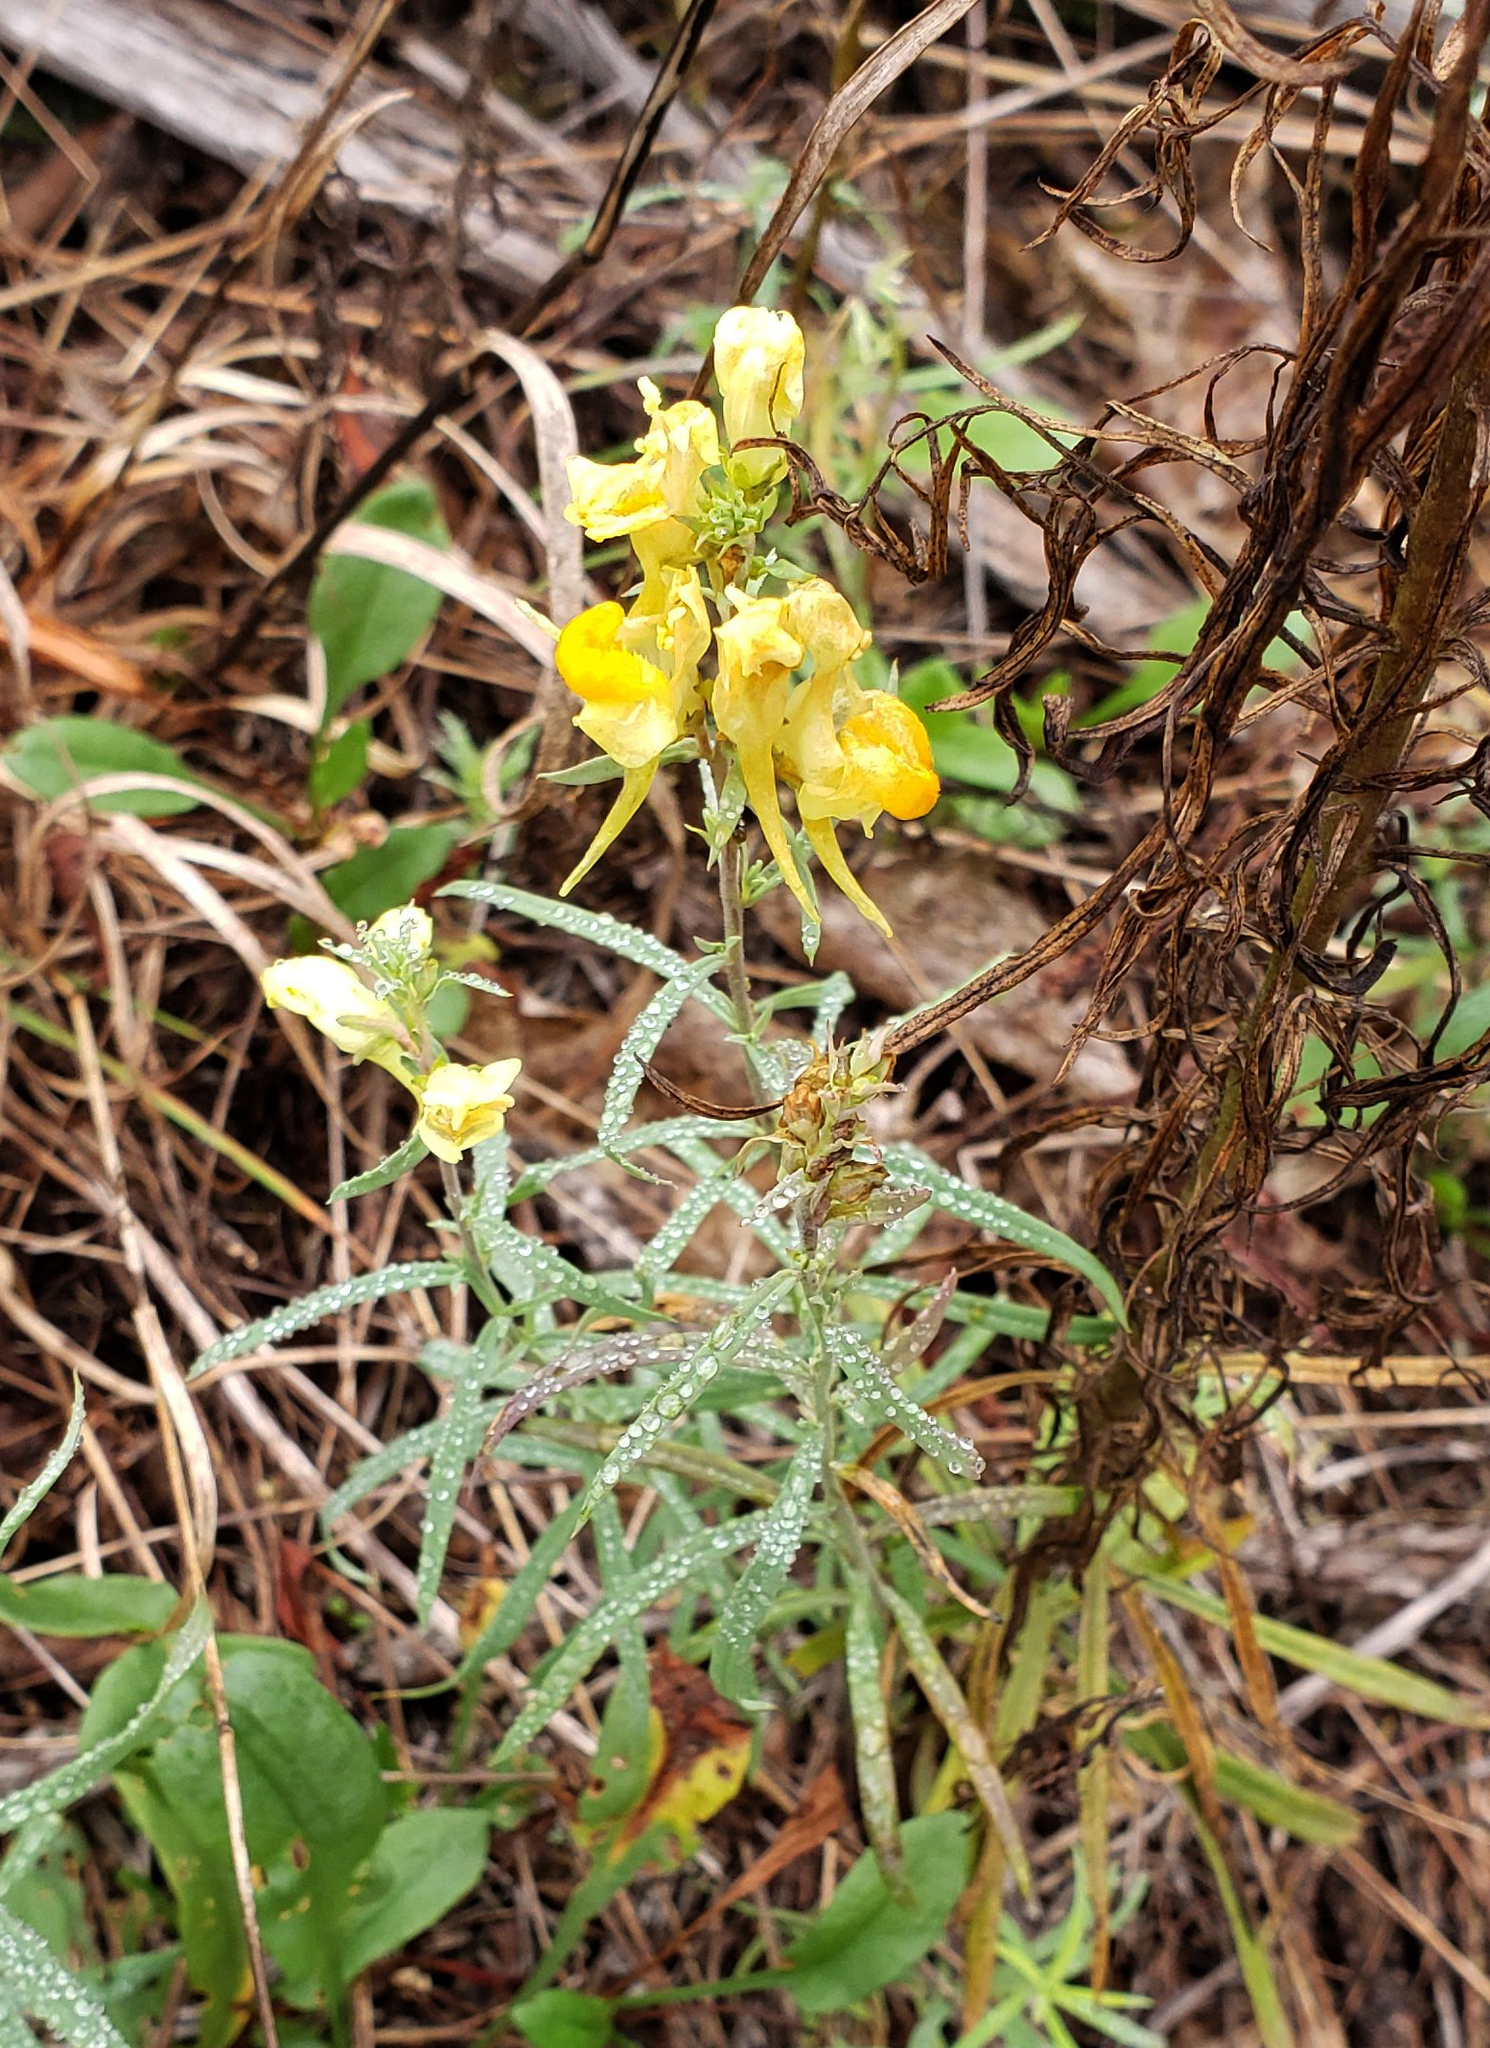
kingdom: Plantae
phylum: Tracheophyta
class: Magnoliopsida
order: Lamiales
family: Plantaginaceae
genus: Linaria
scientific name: Linaria vulgaris
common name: Butter and eggs
